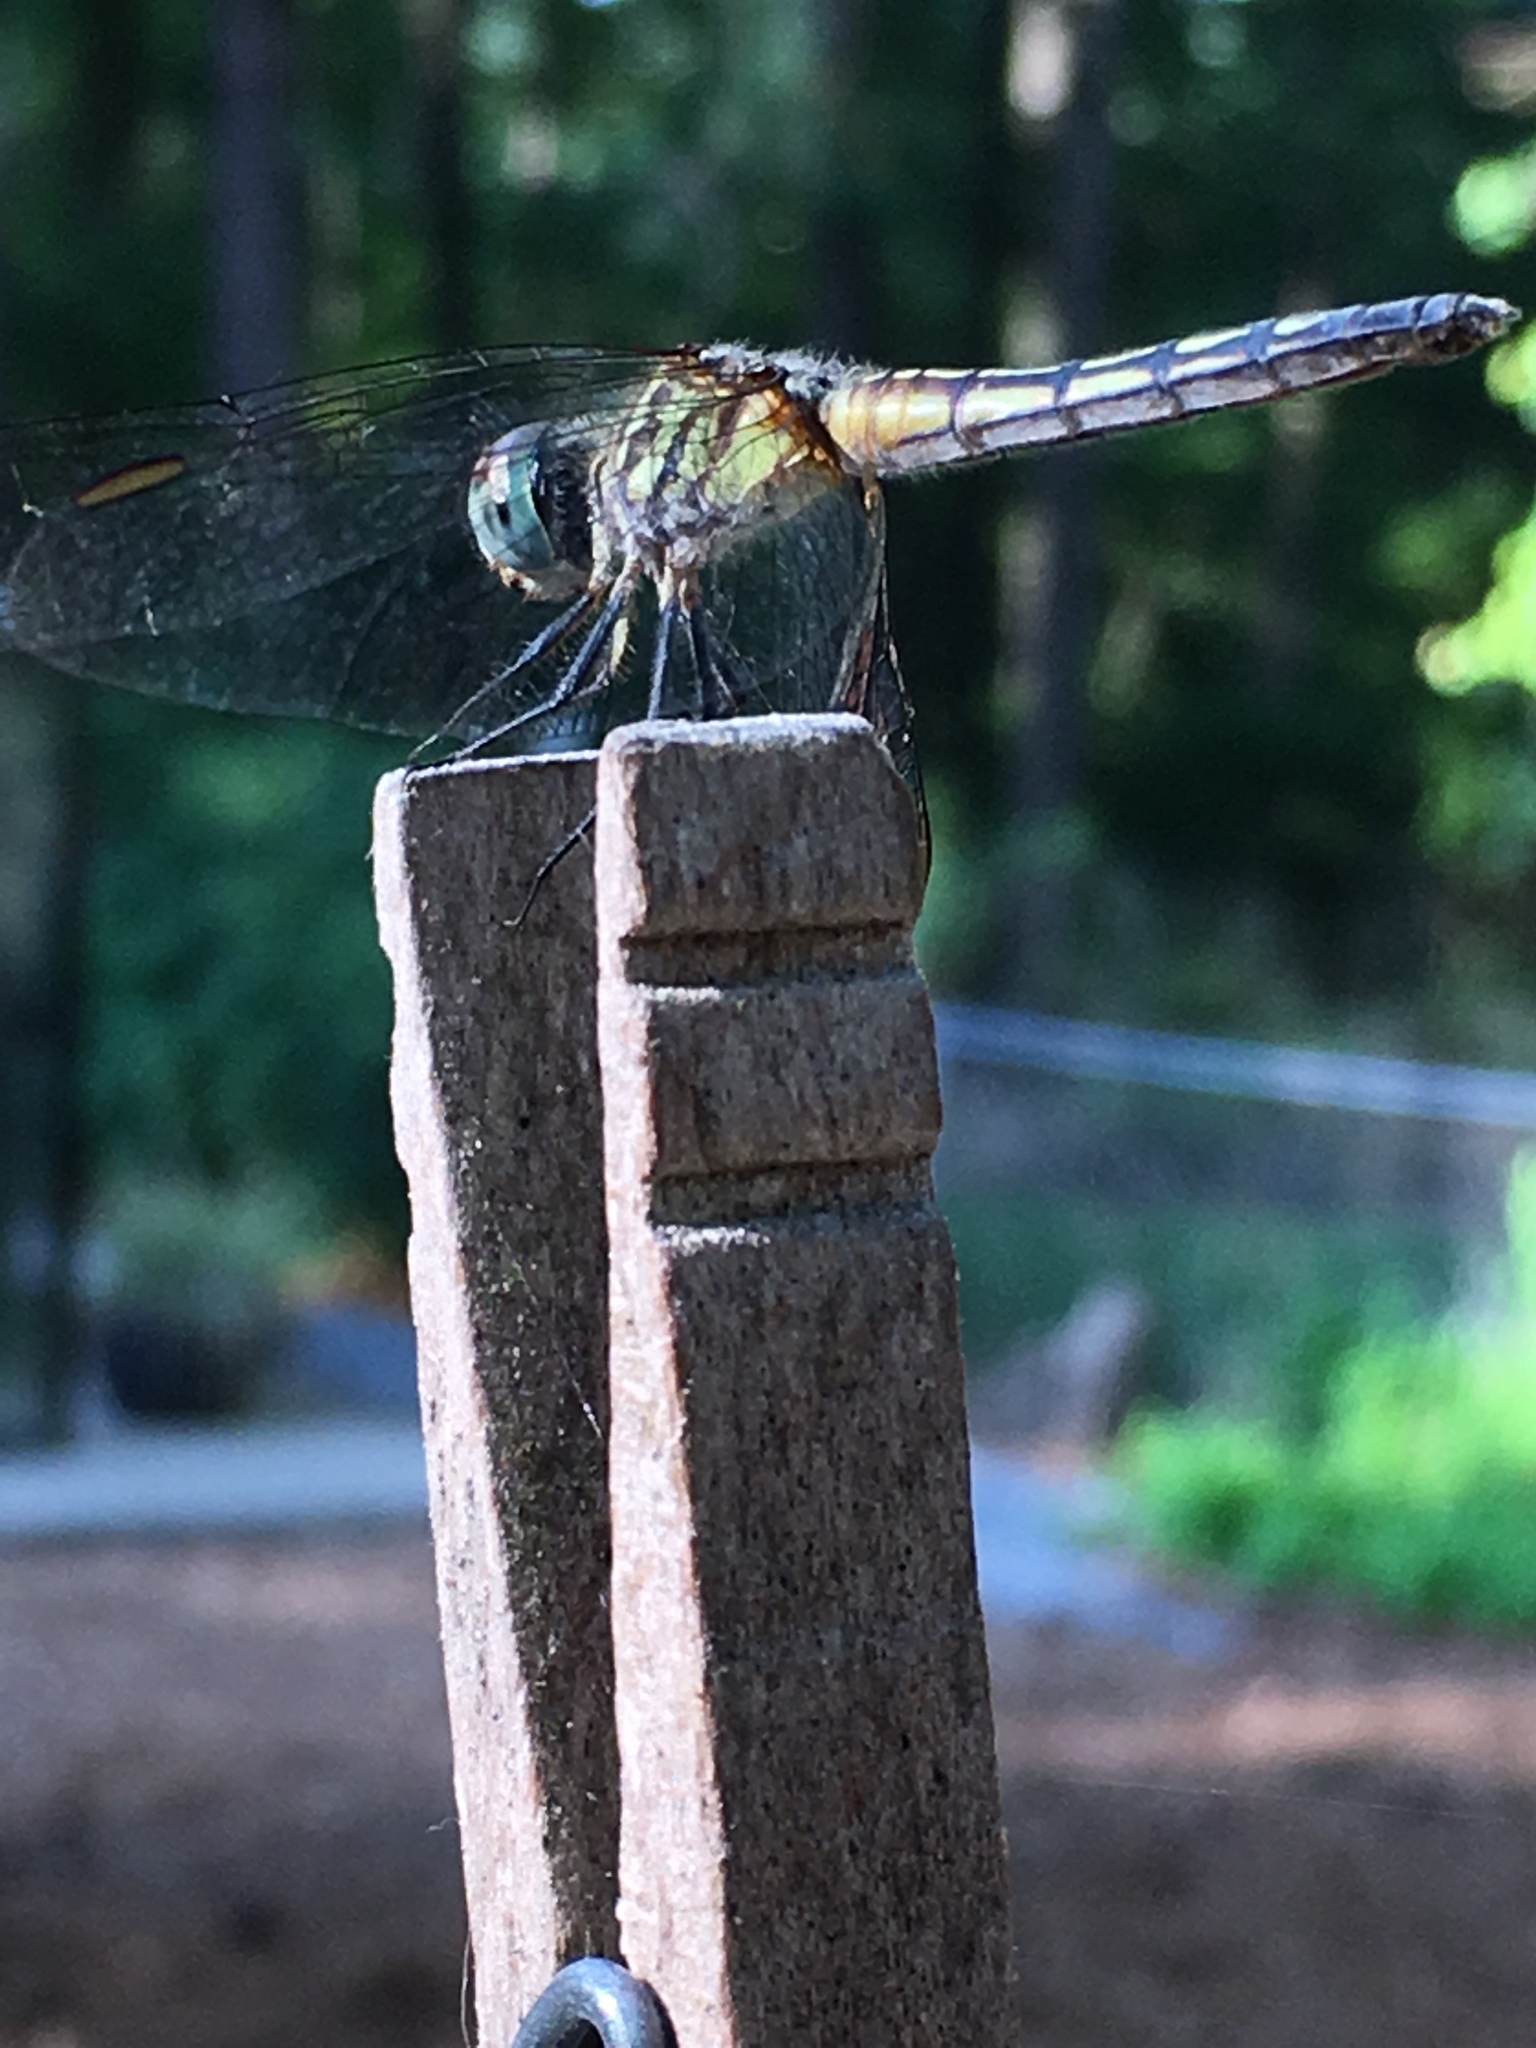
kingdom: Animalia
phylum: Arthropoda
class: Insecta
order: Odonata
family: Libellulidae
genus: Pachydiplax
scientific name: Pachydiplax longipennis
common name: Blue dasher
